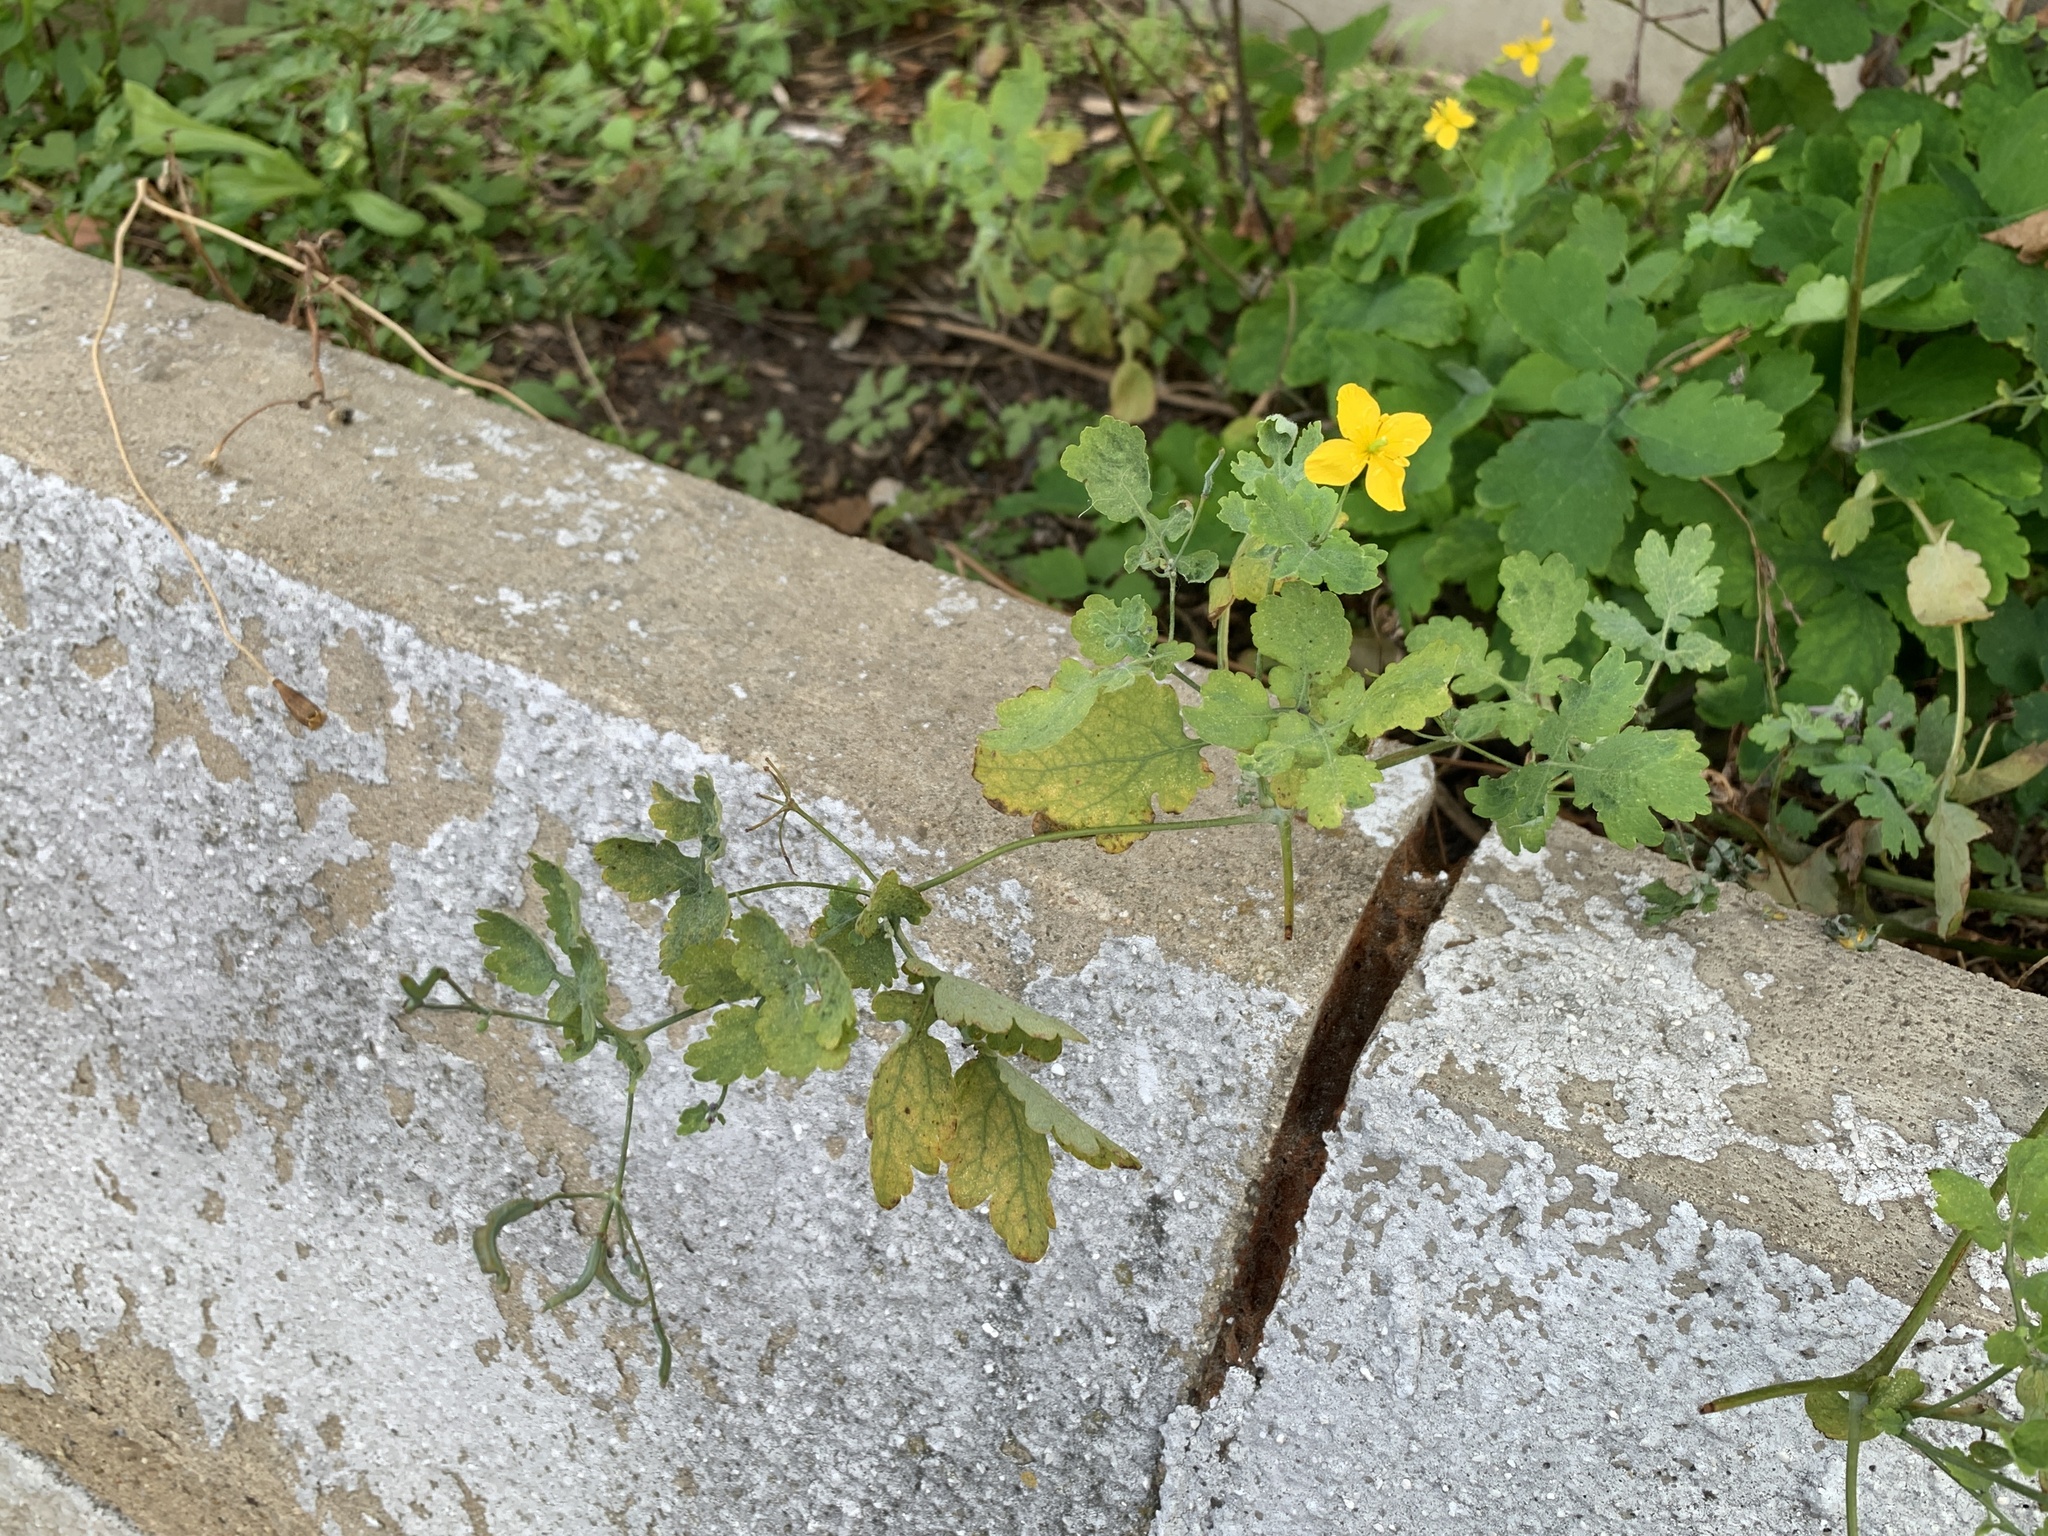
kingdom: Plantae
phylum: Tracheophyta
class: Magnoliopsida
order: Ranunculales
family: Papaveraceae
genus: Chelidonium
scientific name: Chelidonium majus
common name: Greater celandine
